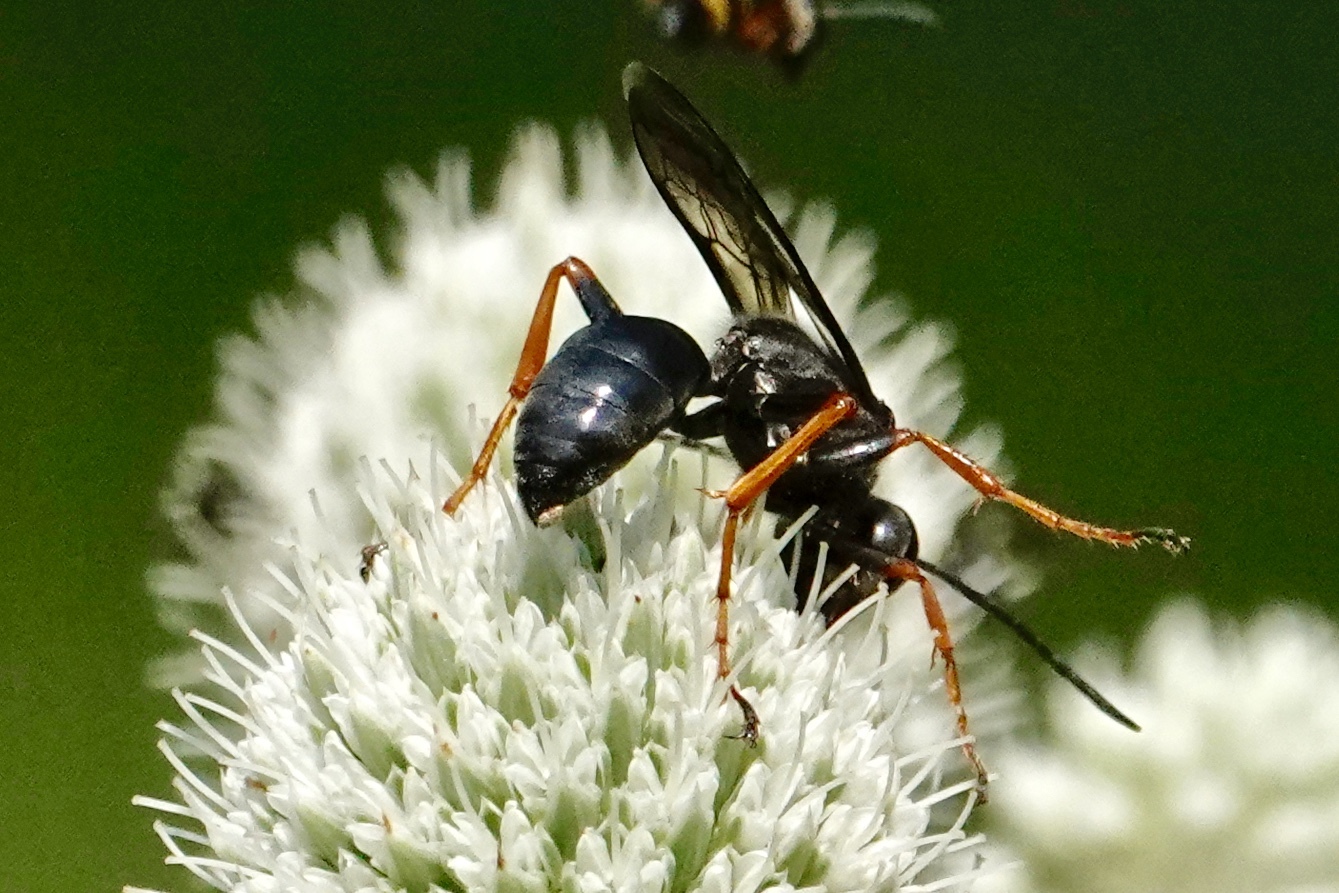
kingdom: Animalia
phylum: Arthropoda
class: Insecta
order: Hymenoptera
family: Sphecidae
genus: Sphex
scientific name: Sphex nudus
